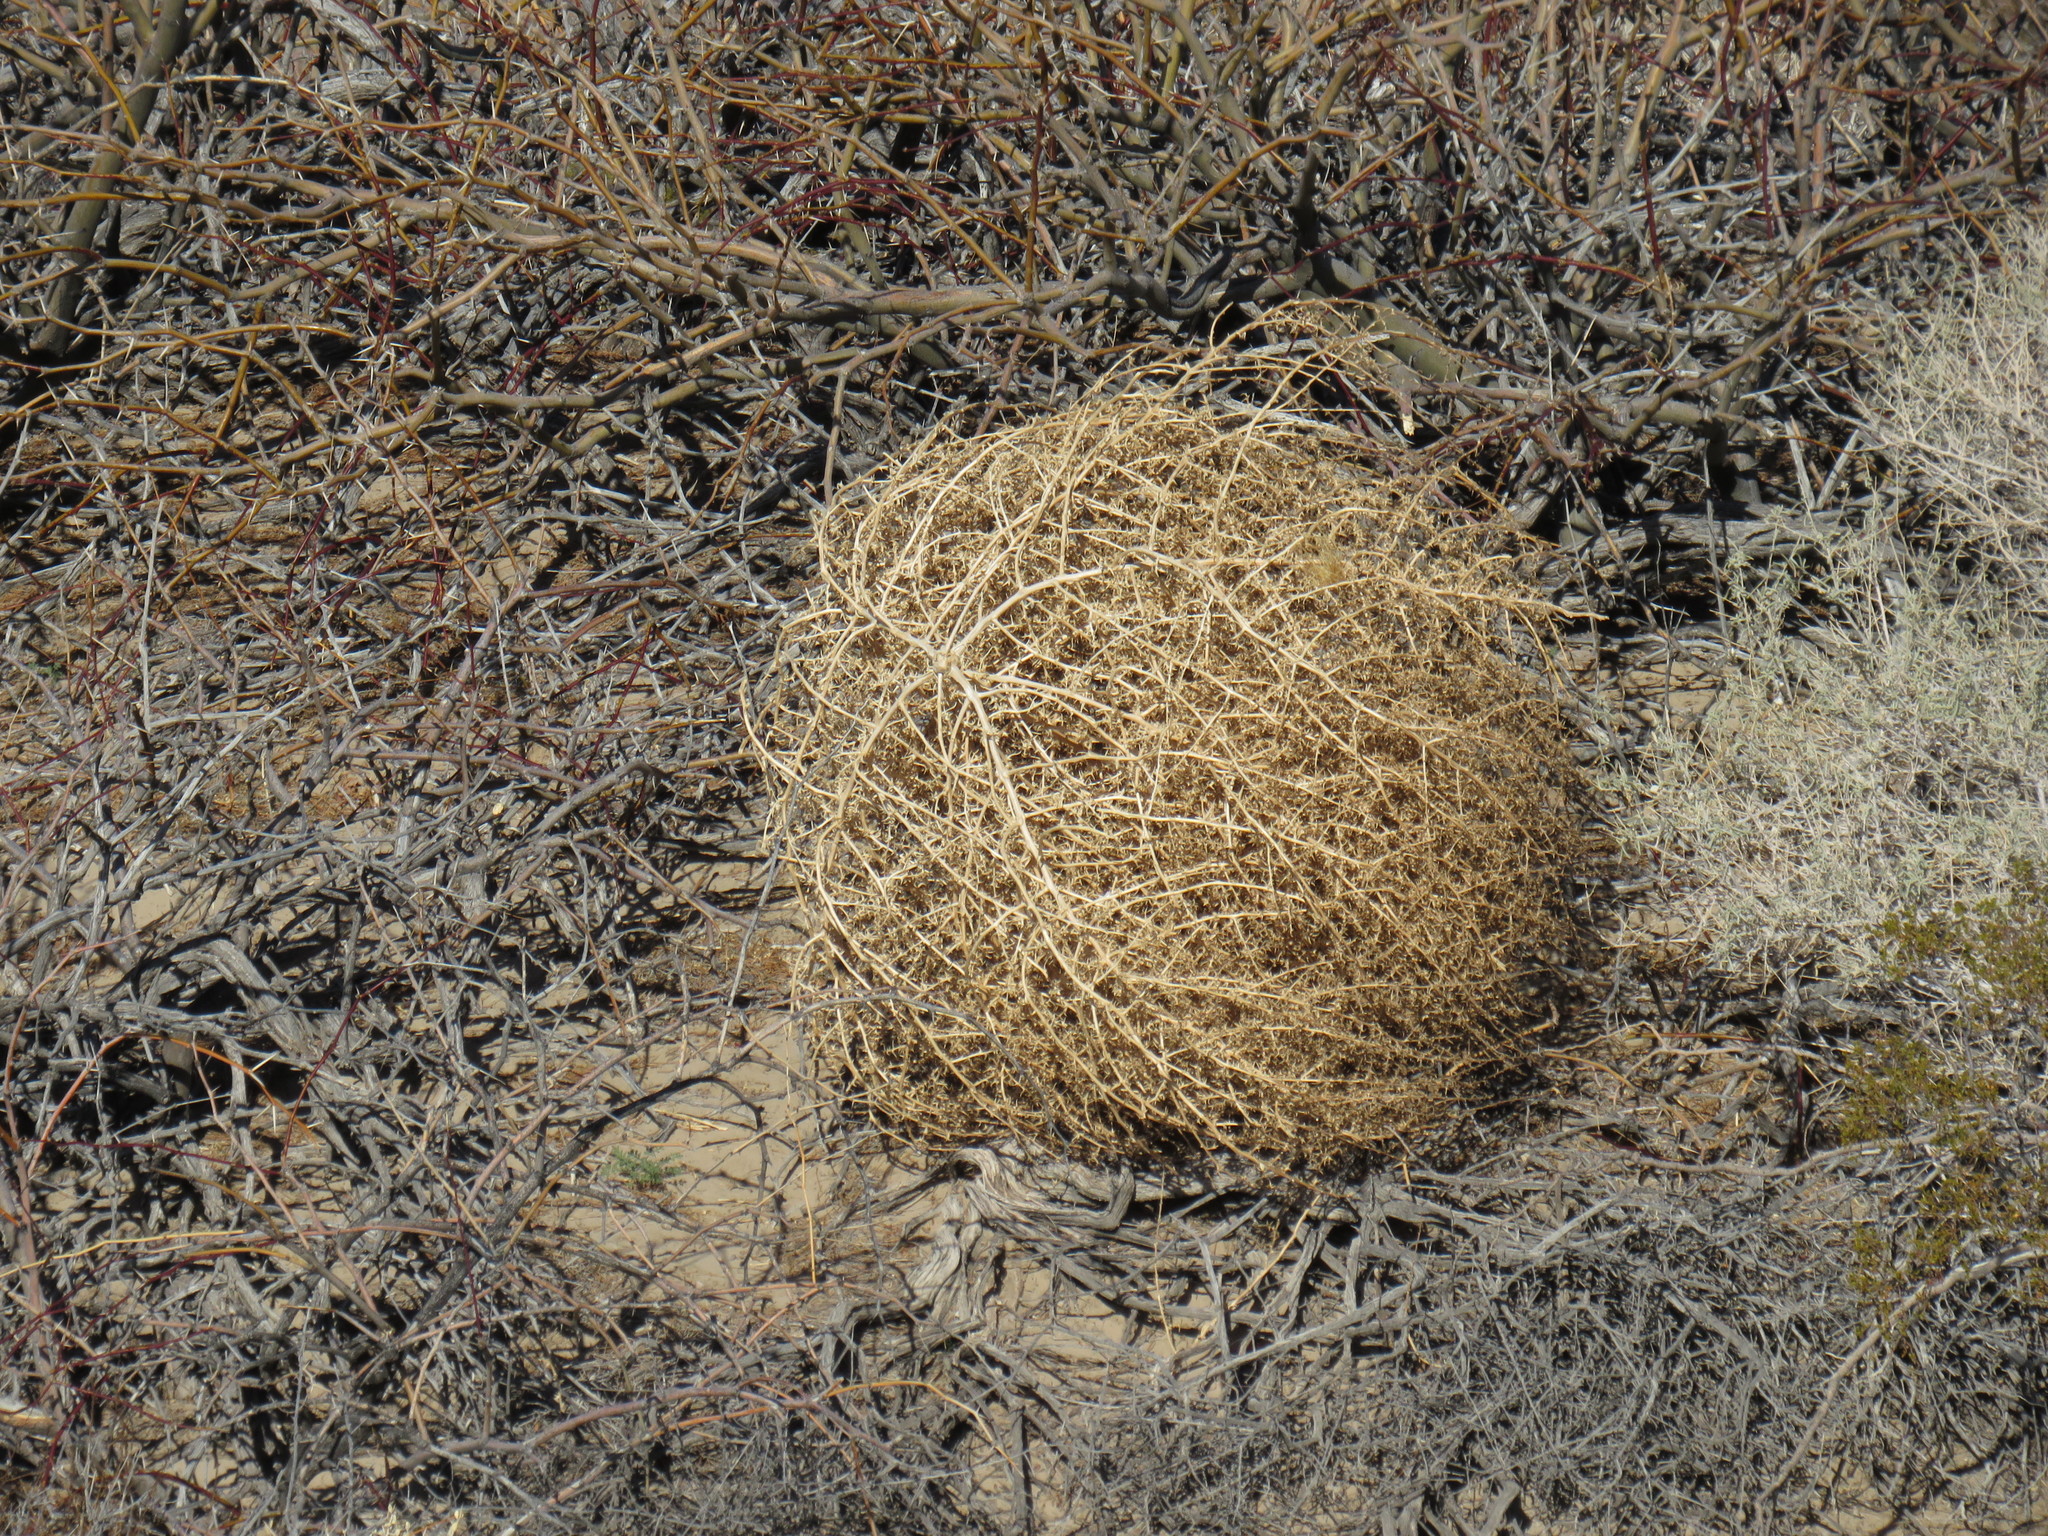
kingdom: Plantae
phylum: Tracheophyta
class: Magnoliopsida
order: Caryophyllales
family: Amaranthaceae
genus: Salsola
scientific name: Salsola tragus
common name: Prickly russian thistle
